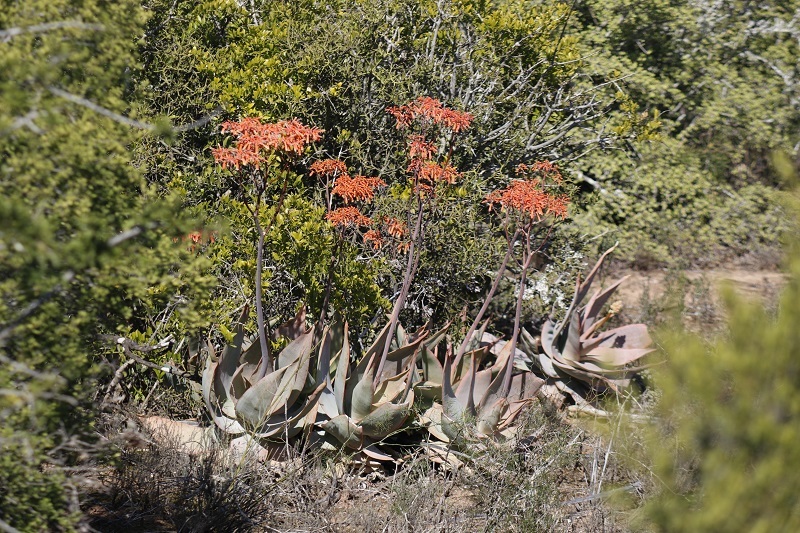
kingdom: Plantae
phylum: Tracheophyta
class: Liliopsida
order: Asparagales
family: Asphodelaceae
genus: Aloe
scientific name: Aloe striata
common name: Coral aloe
